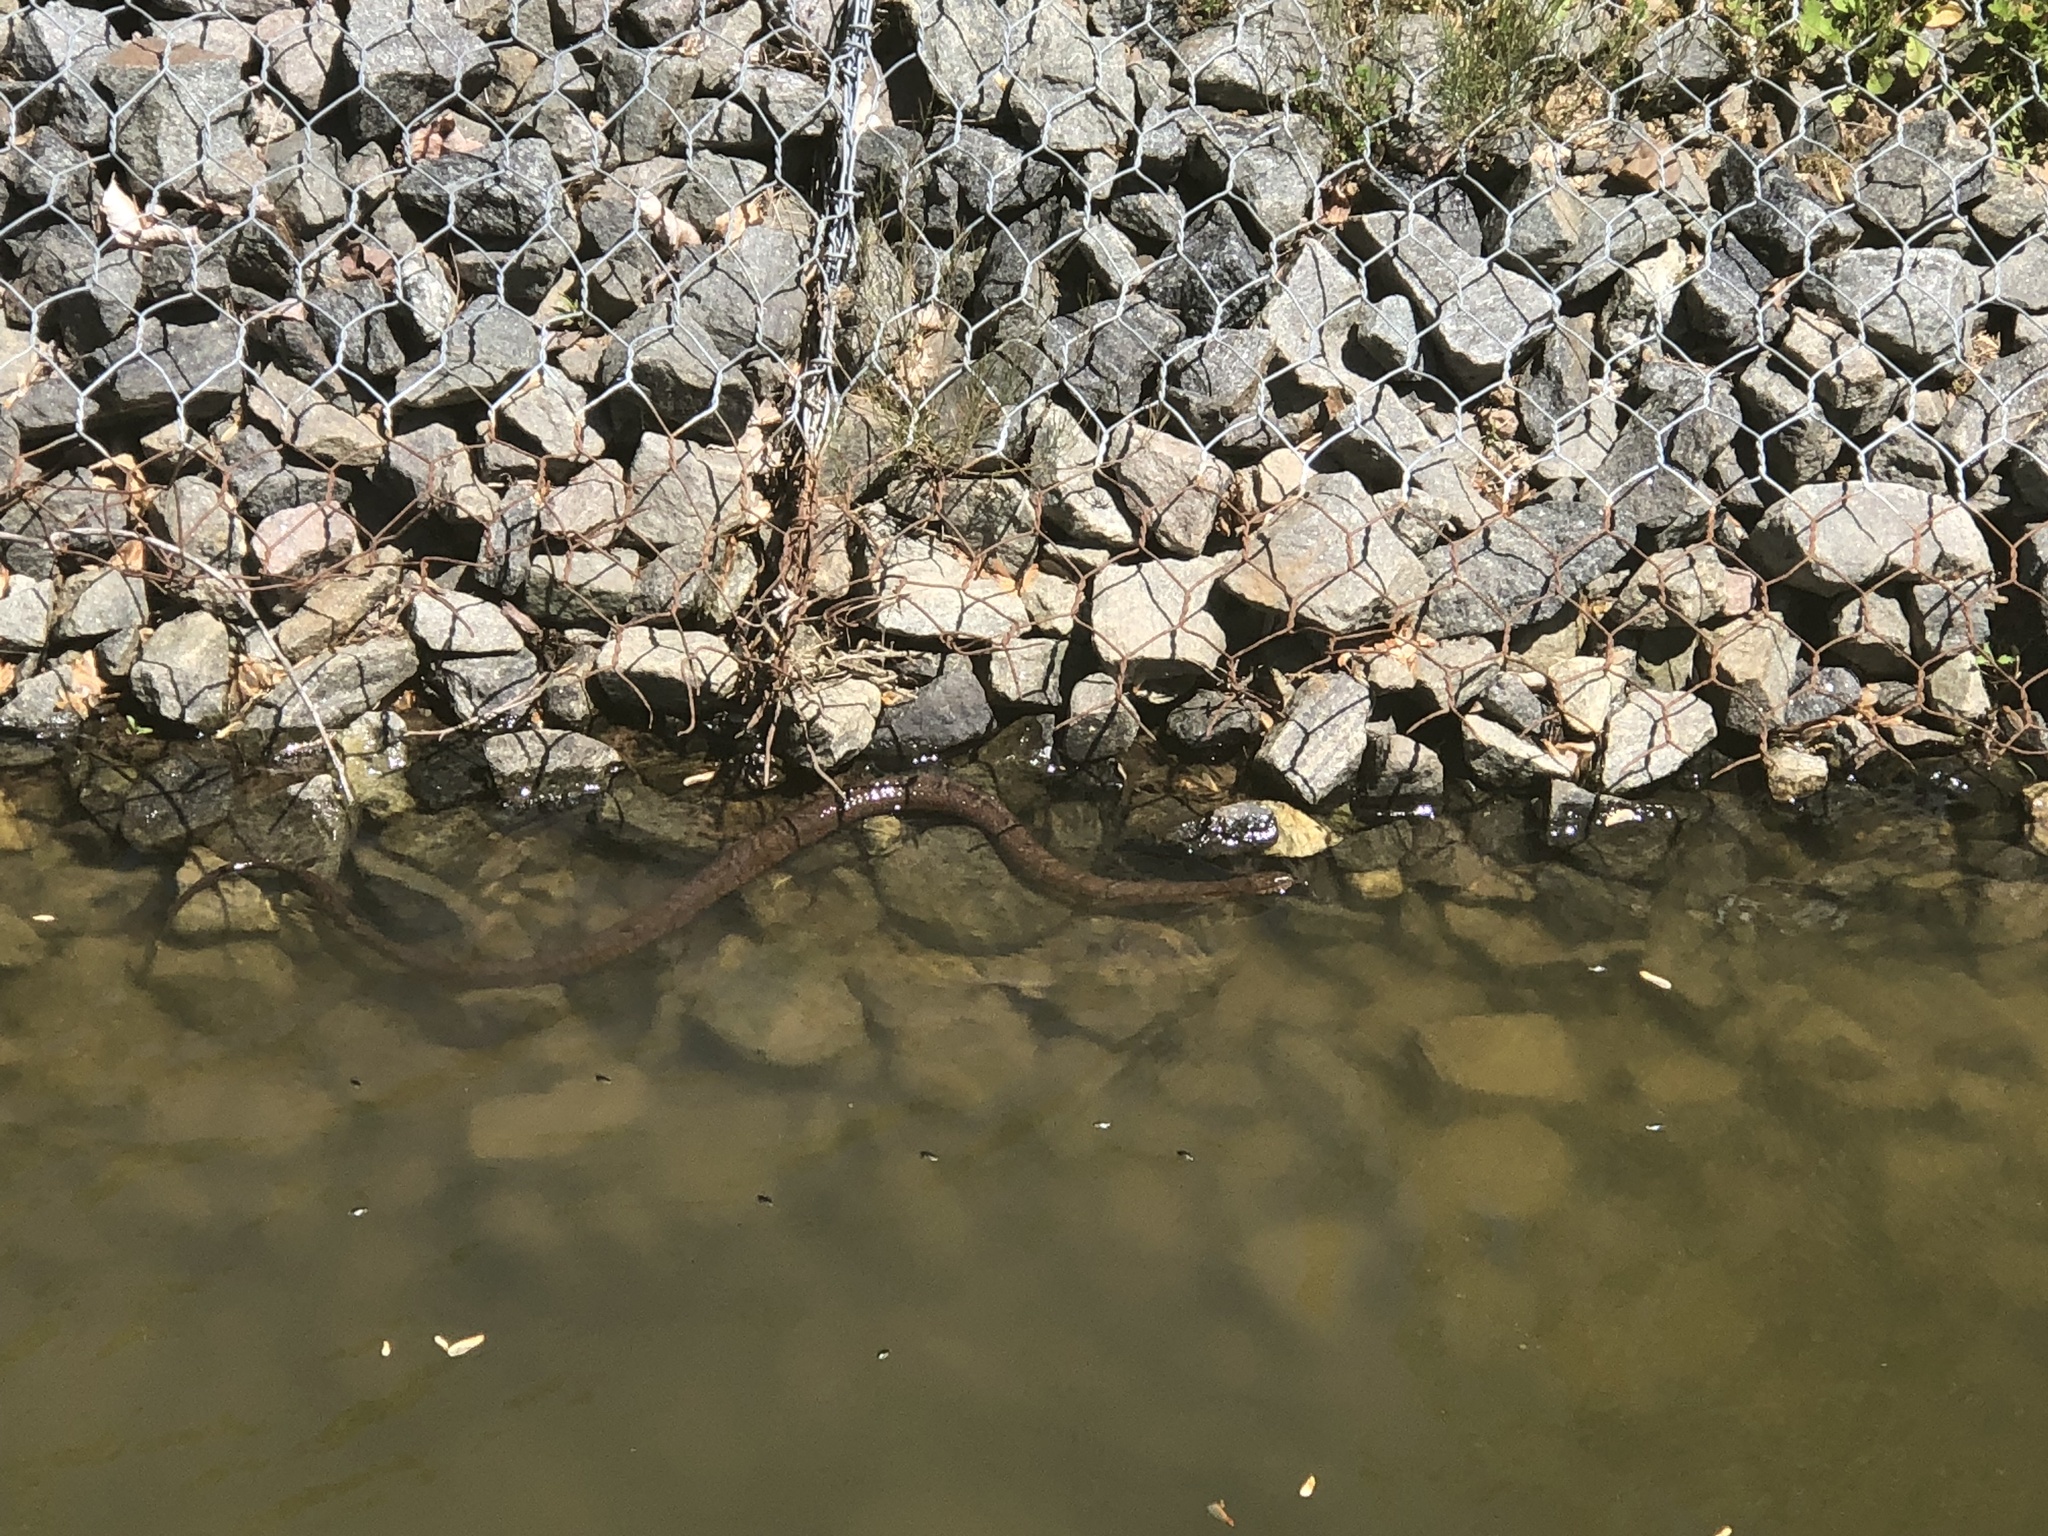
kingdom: Animalia
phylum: Chordata
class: Squamata
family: Colubridae
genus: Nerodia
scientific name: Nerodia sipedon
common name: Northern water snake
